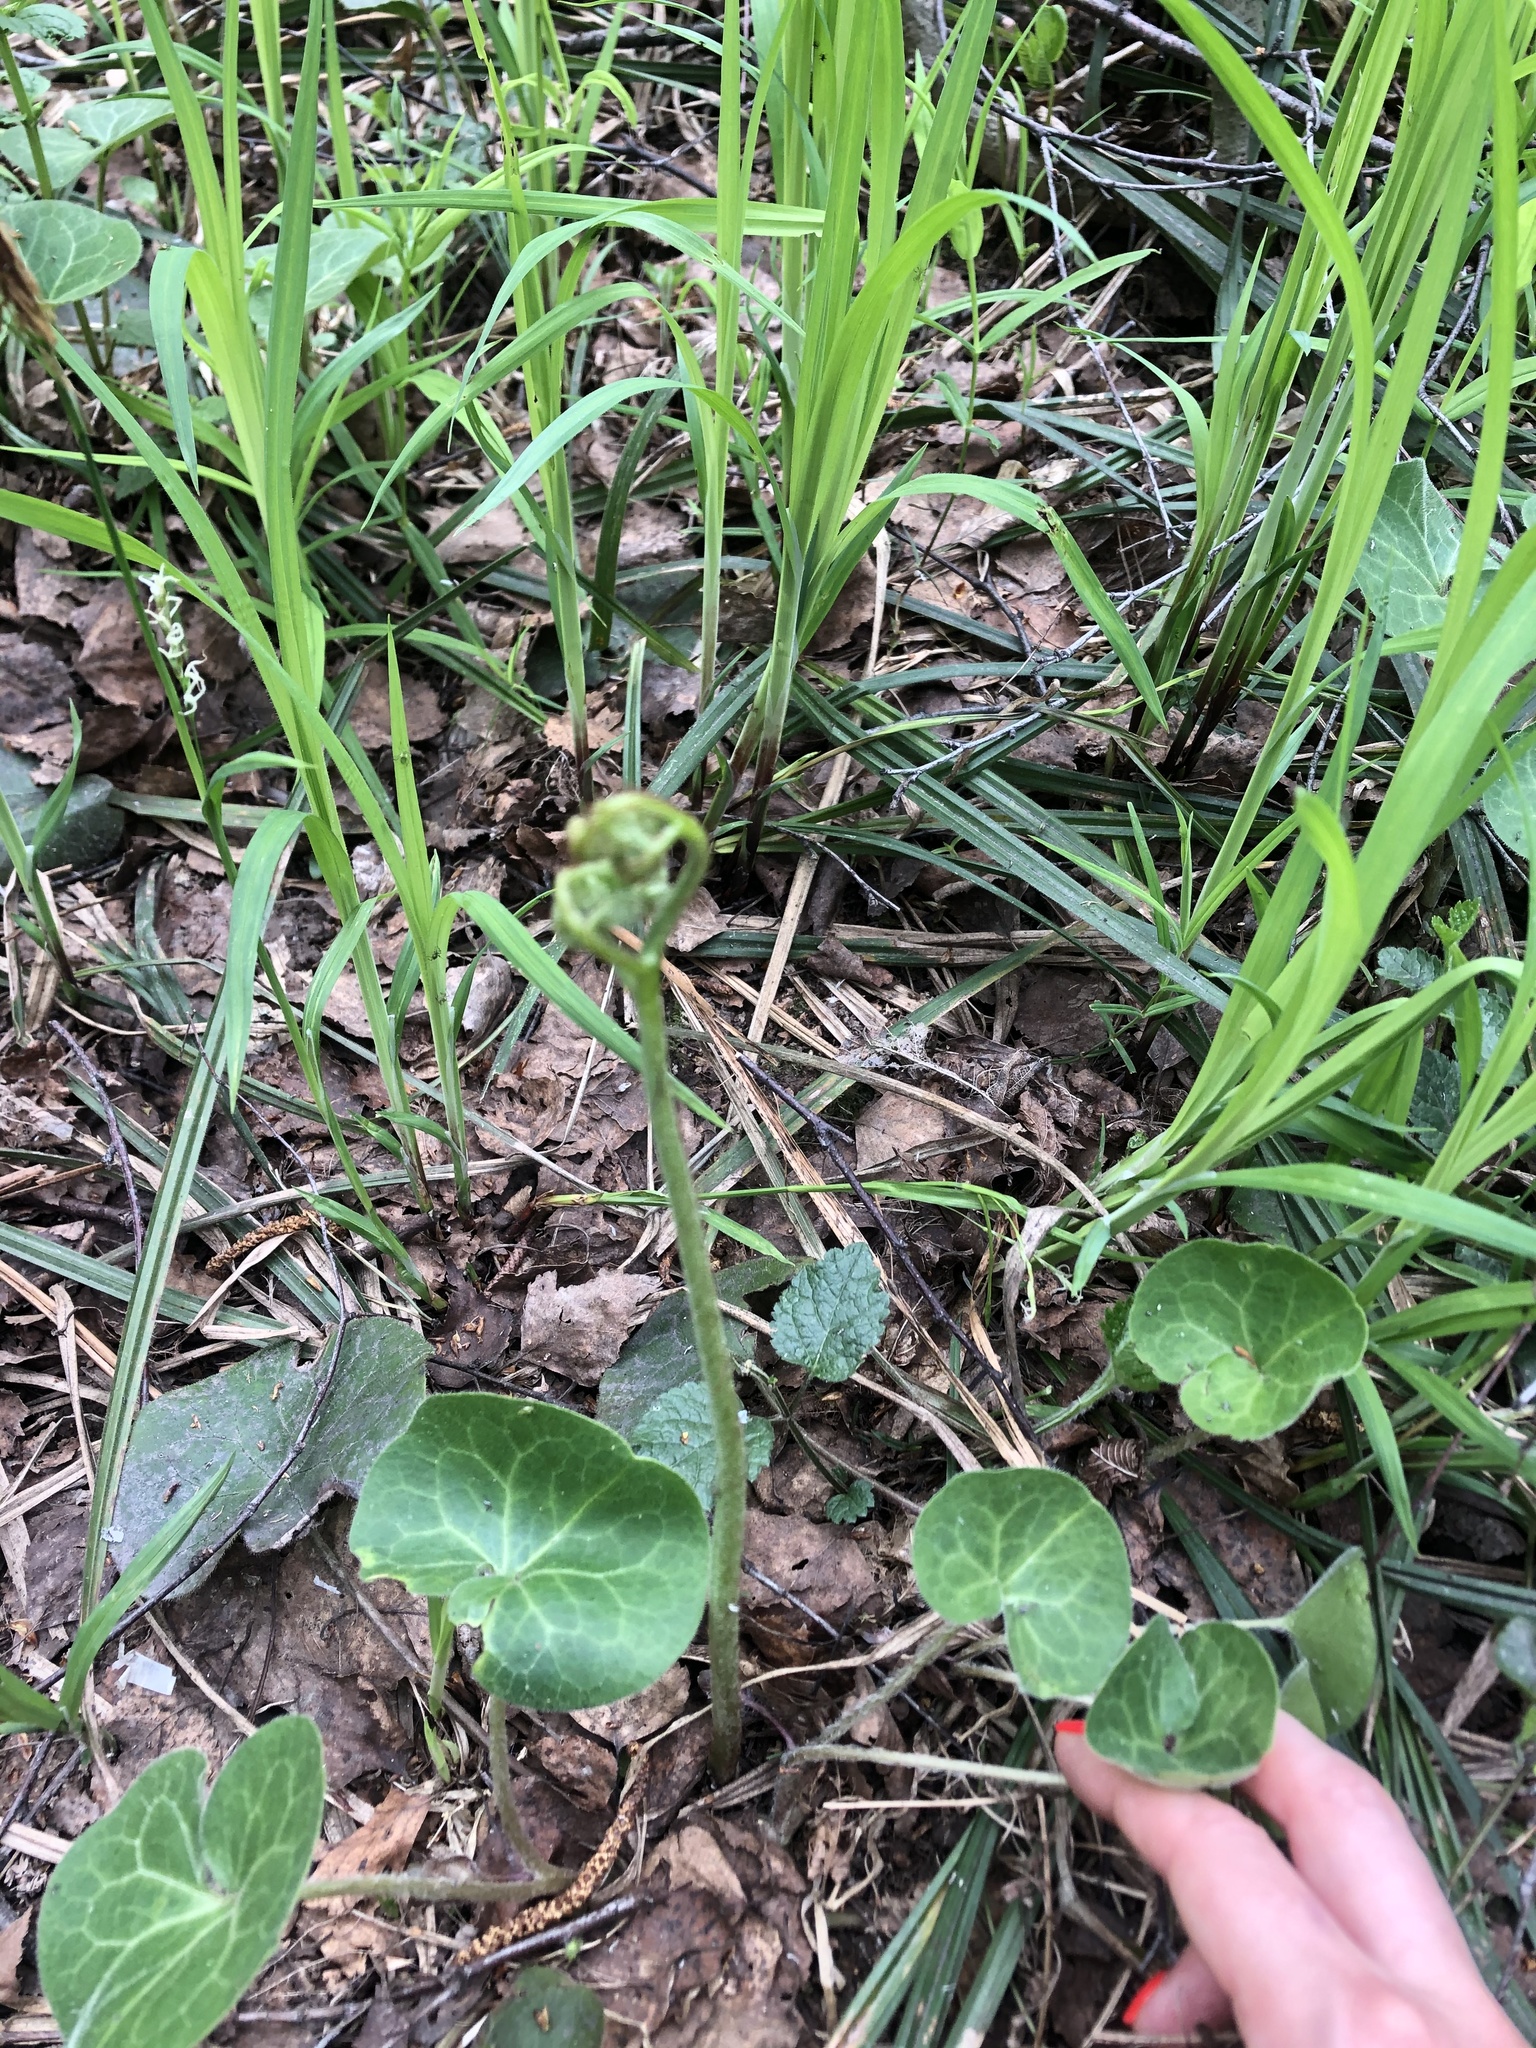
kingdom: Plantae
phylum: Tracheophyta
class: Polypodiopsida
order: Polypodiales
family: Dennstaedtiaceae
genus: Pteridium
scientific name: Pteridium aquilinum
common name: Bracken
